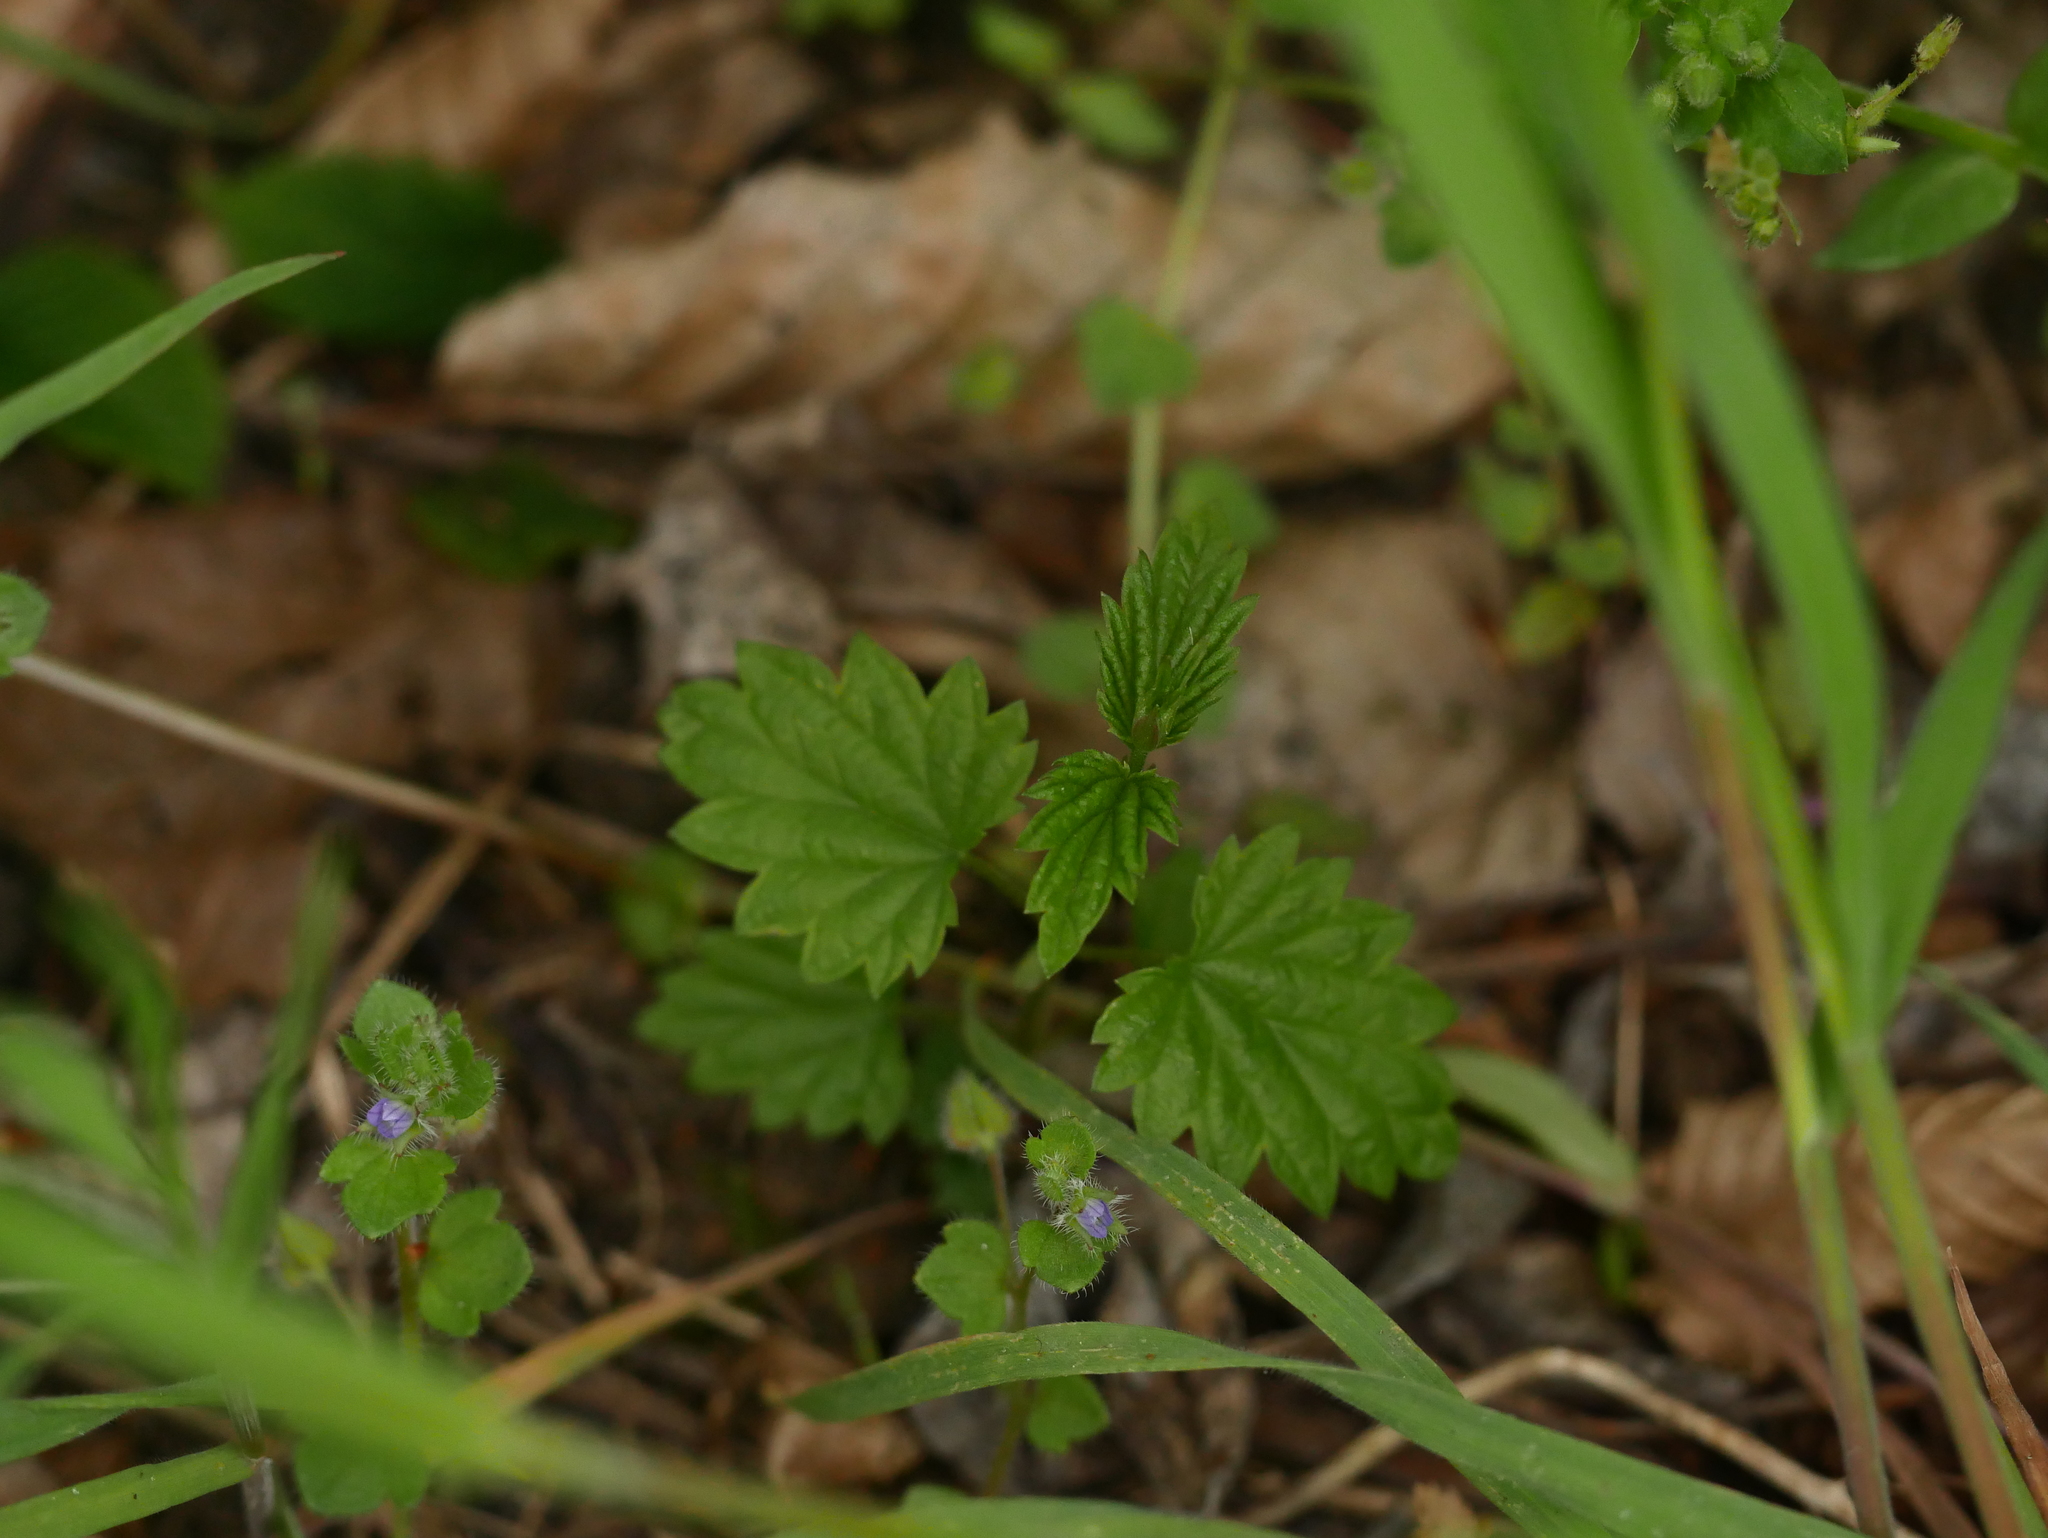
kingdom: Plantae
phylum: Tracheophyta
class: Magnoliopsida
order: Rosales
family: Cannabaceae
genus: Humulus
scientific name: Humulus lupulus
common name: Hop
